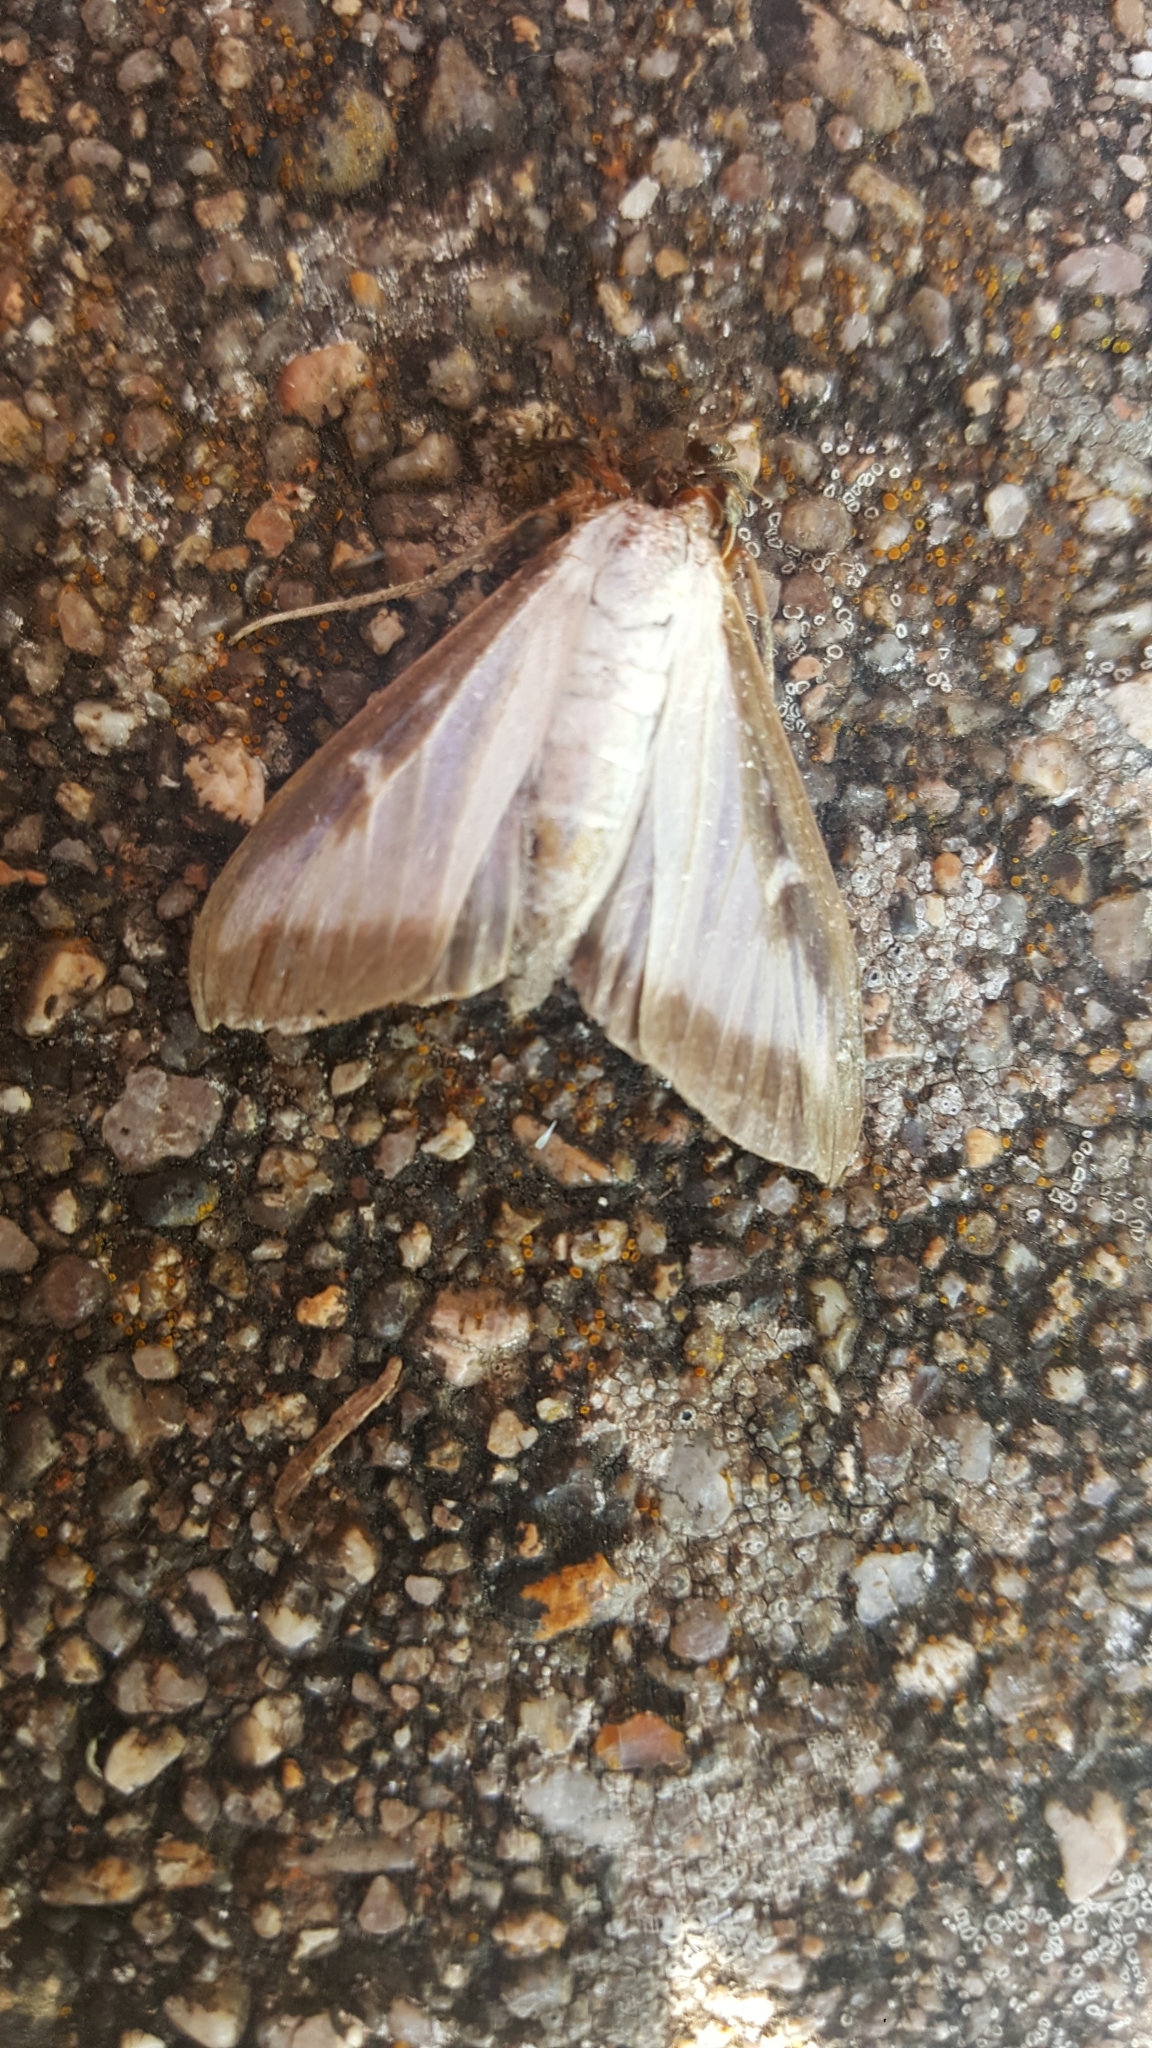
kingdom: Animalia
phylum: Arthropoda
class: Insecta
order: Lepidoptera
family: Crambidae
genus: Cydalima
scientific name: Cydalima perspectalis
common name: Box tree moth
